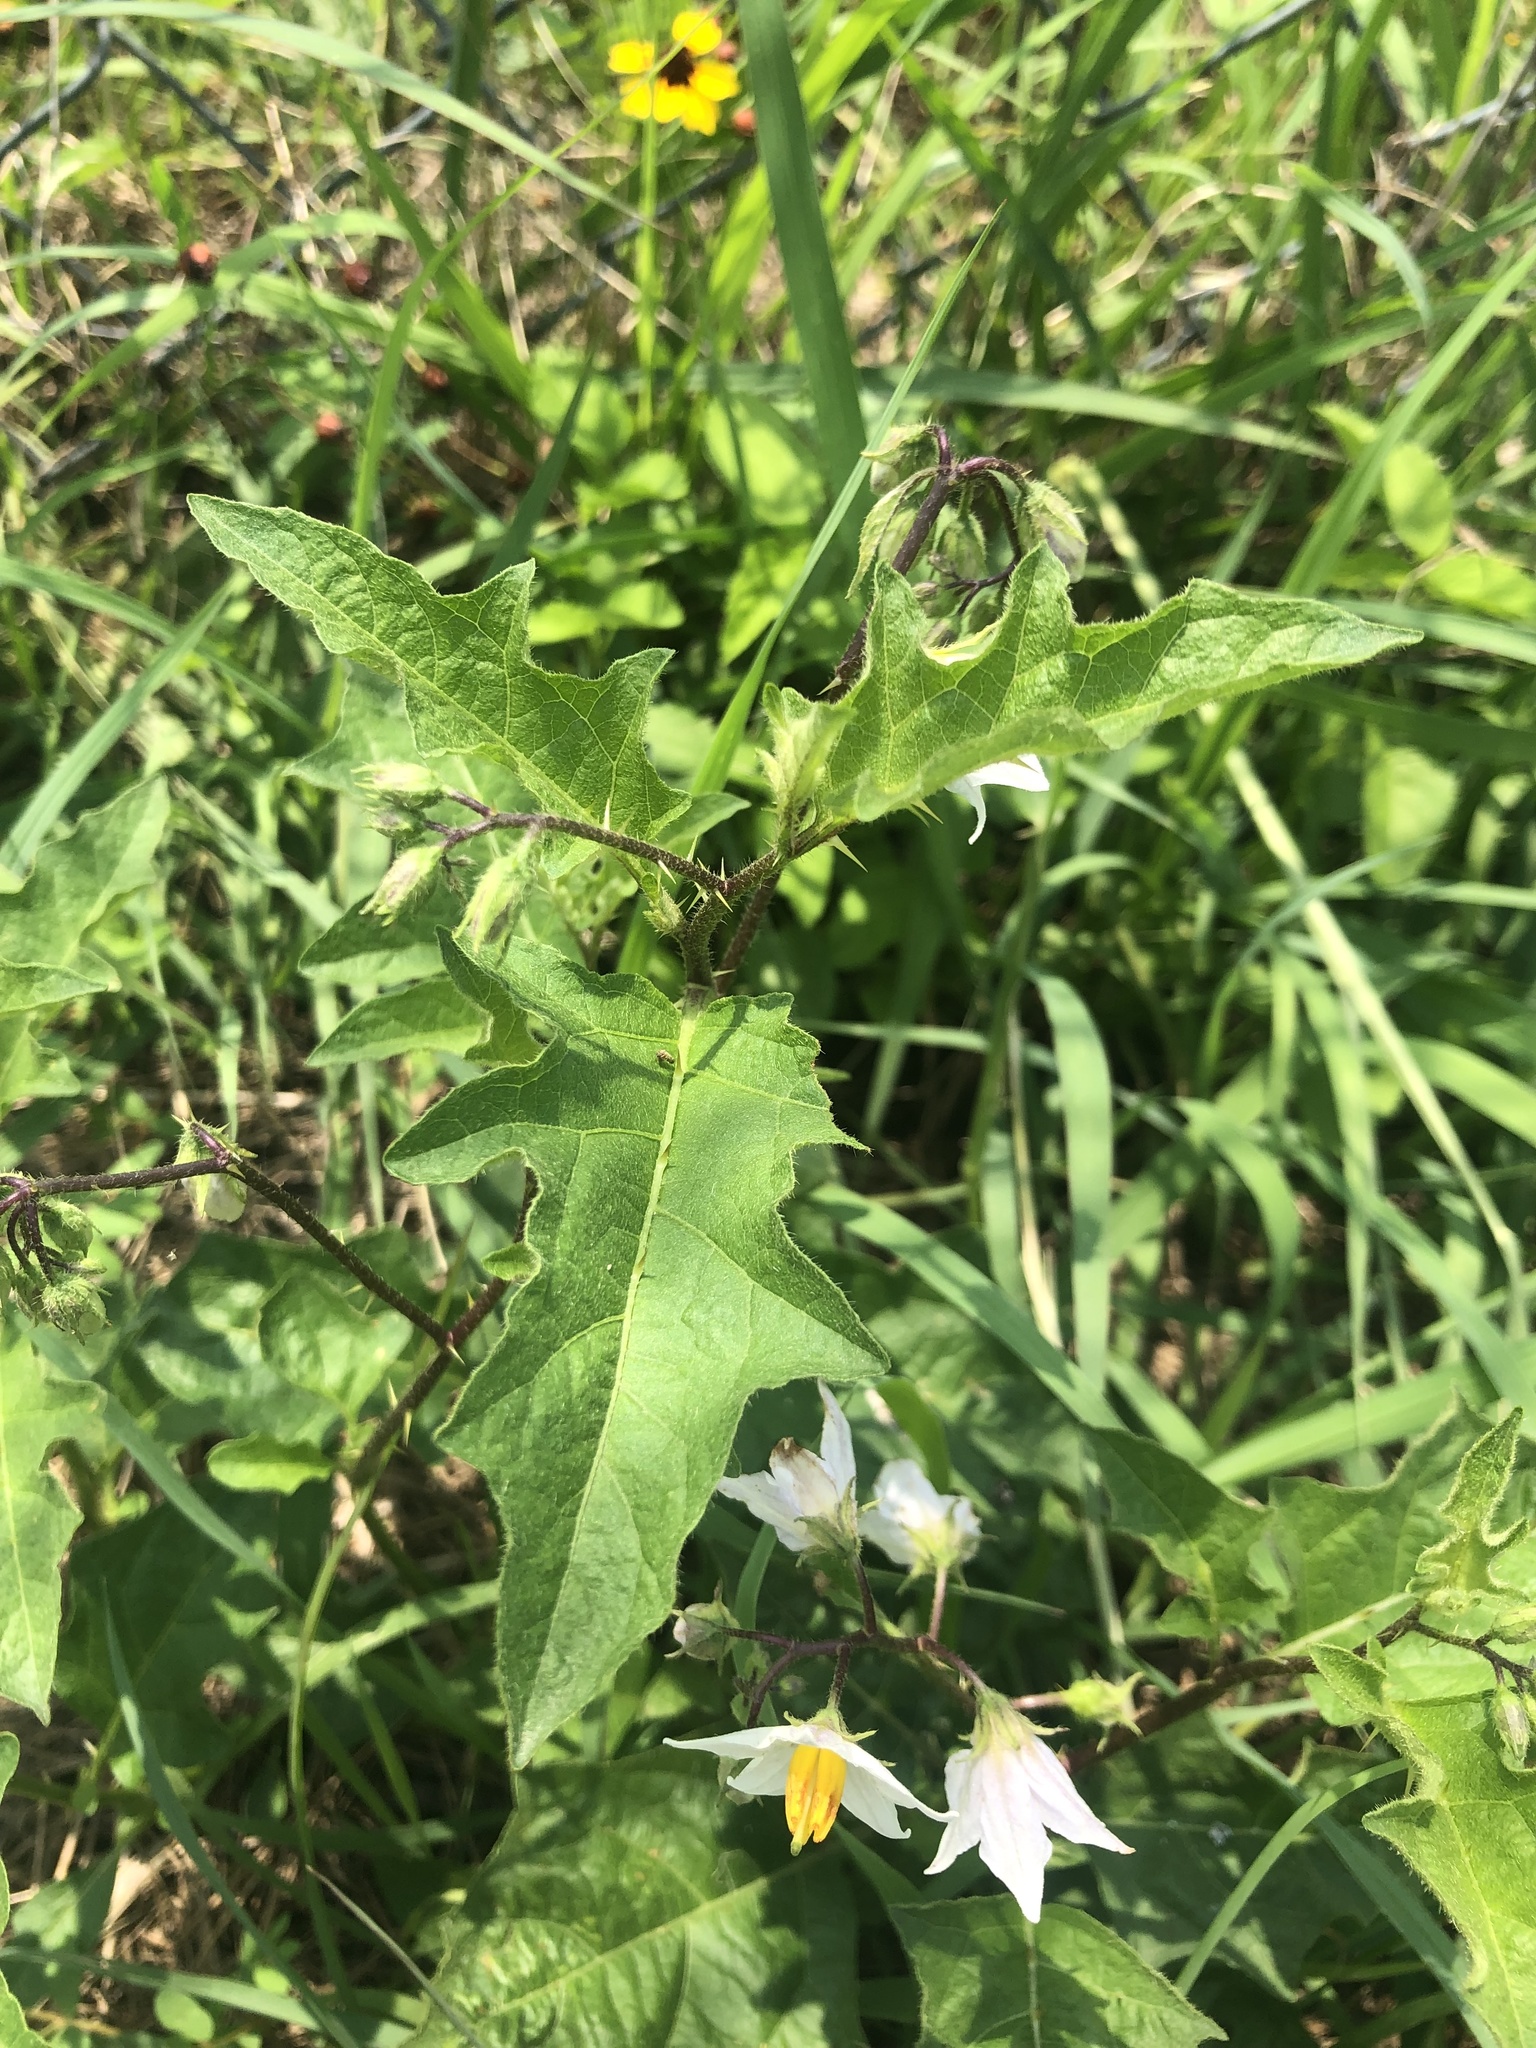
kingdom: Plantae
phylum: Tracheophyta
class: Magnoliopsida
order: Solanales
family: Solanaceae
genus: Solanum
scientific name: Solanum carolinense
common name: Horse-nettle
